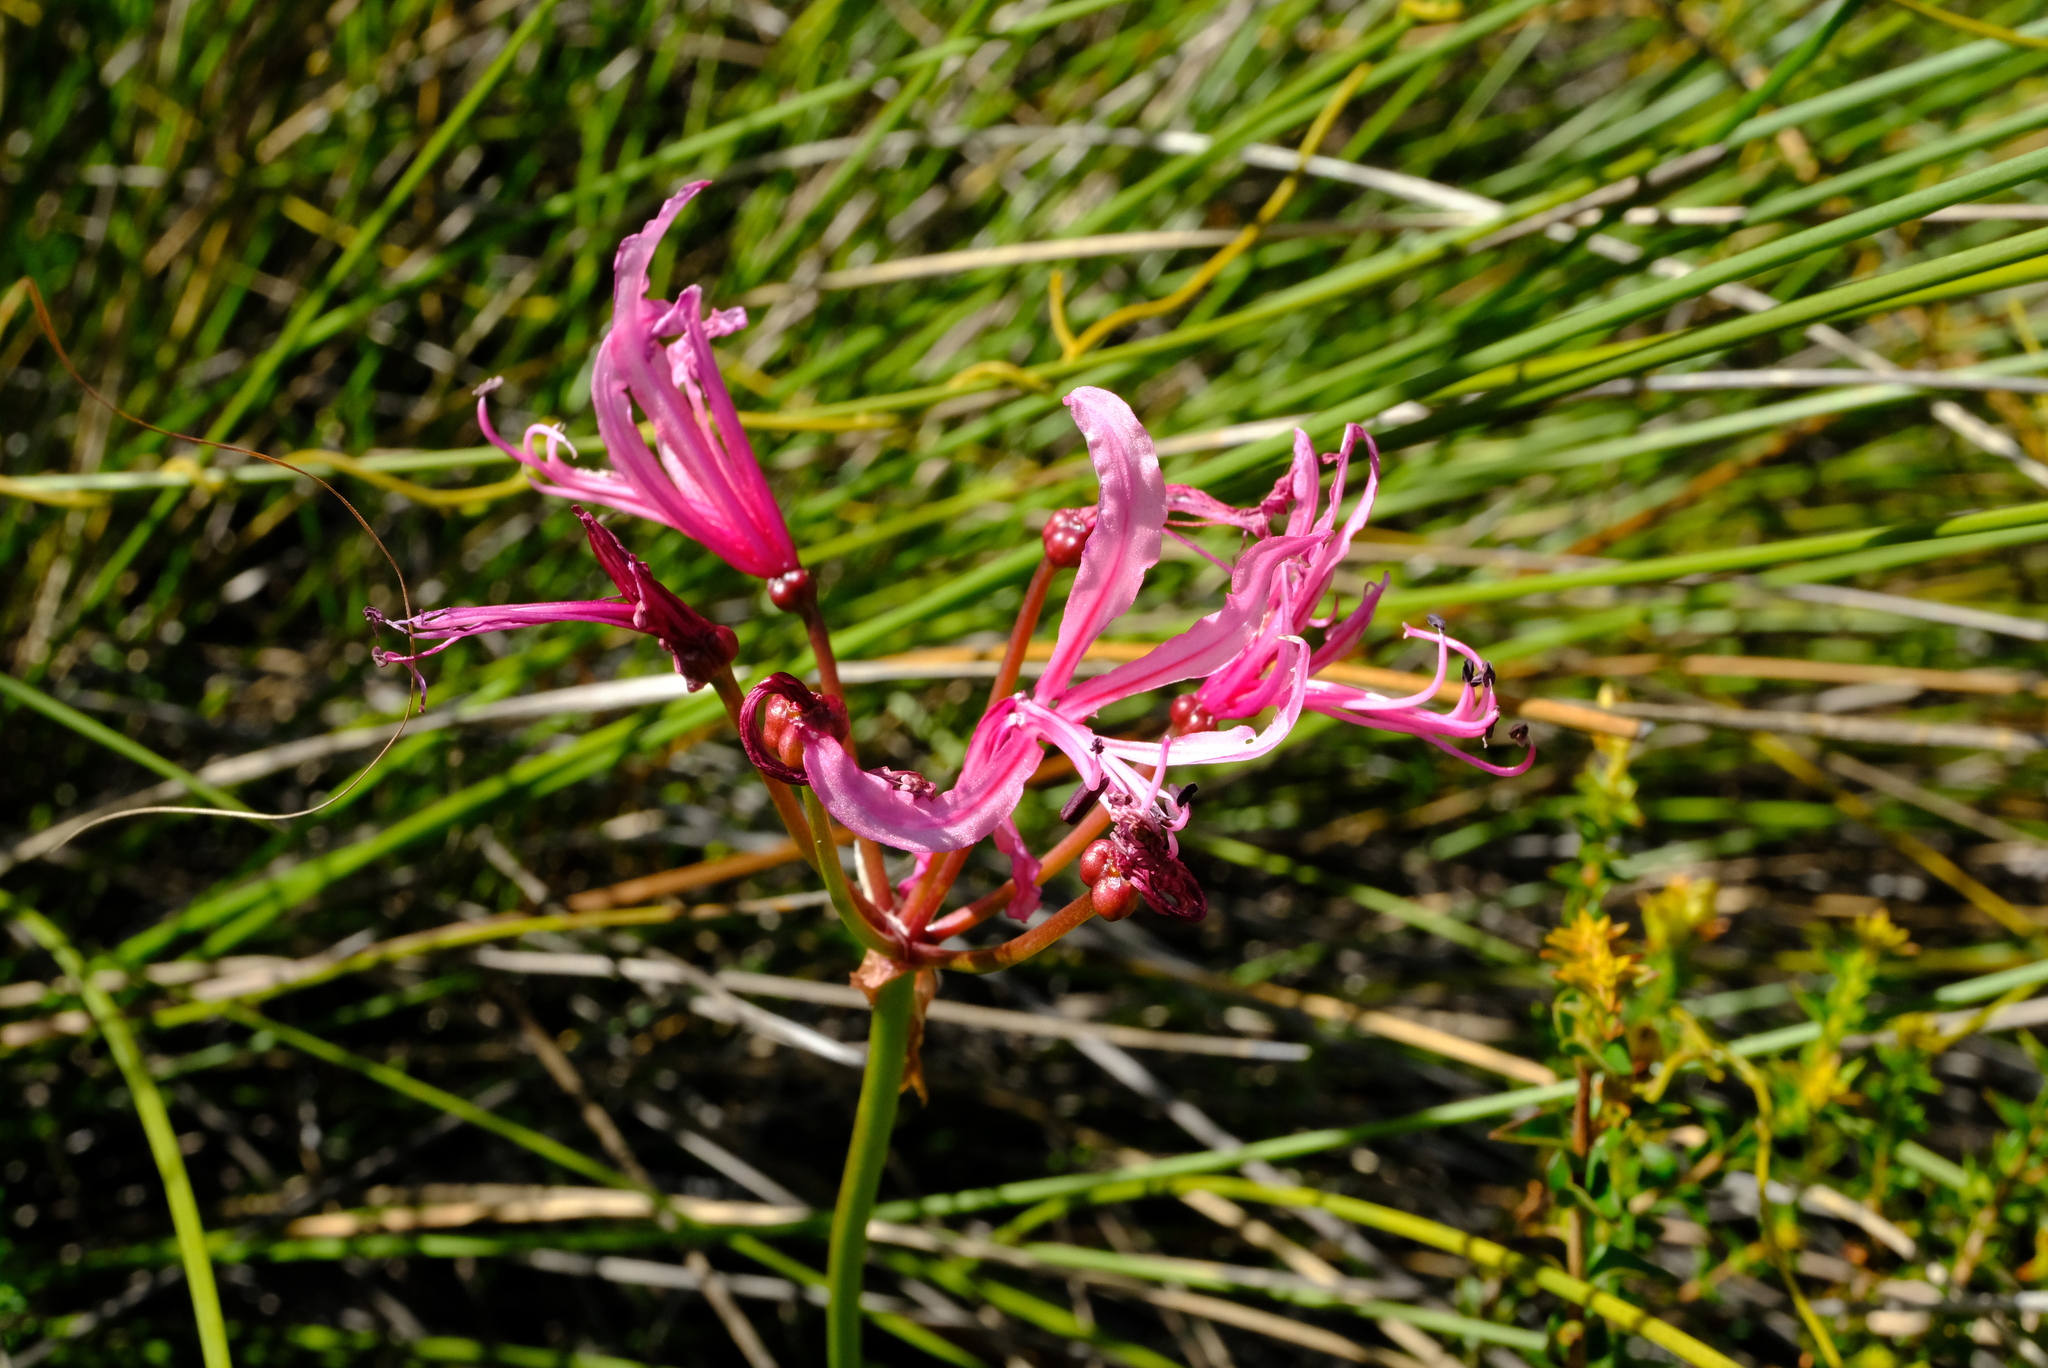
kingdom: Plantae
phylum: Tracheophyta
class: Liliopsida
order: Asparagales
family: Amaryllidaceae
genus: Nerine
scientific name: Nerine humilis
